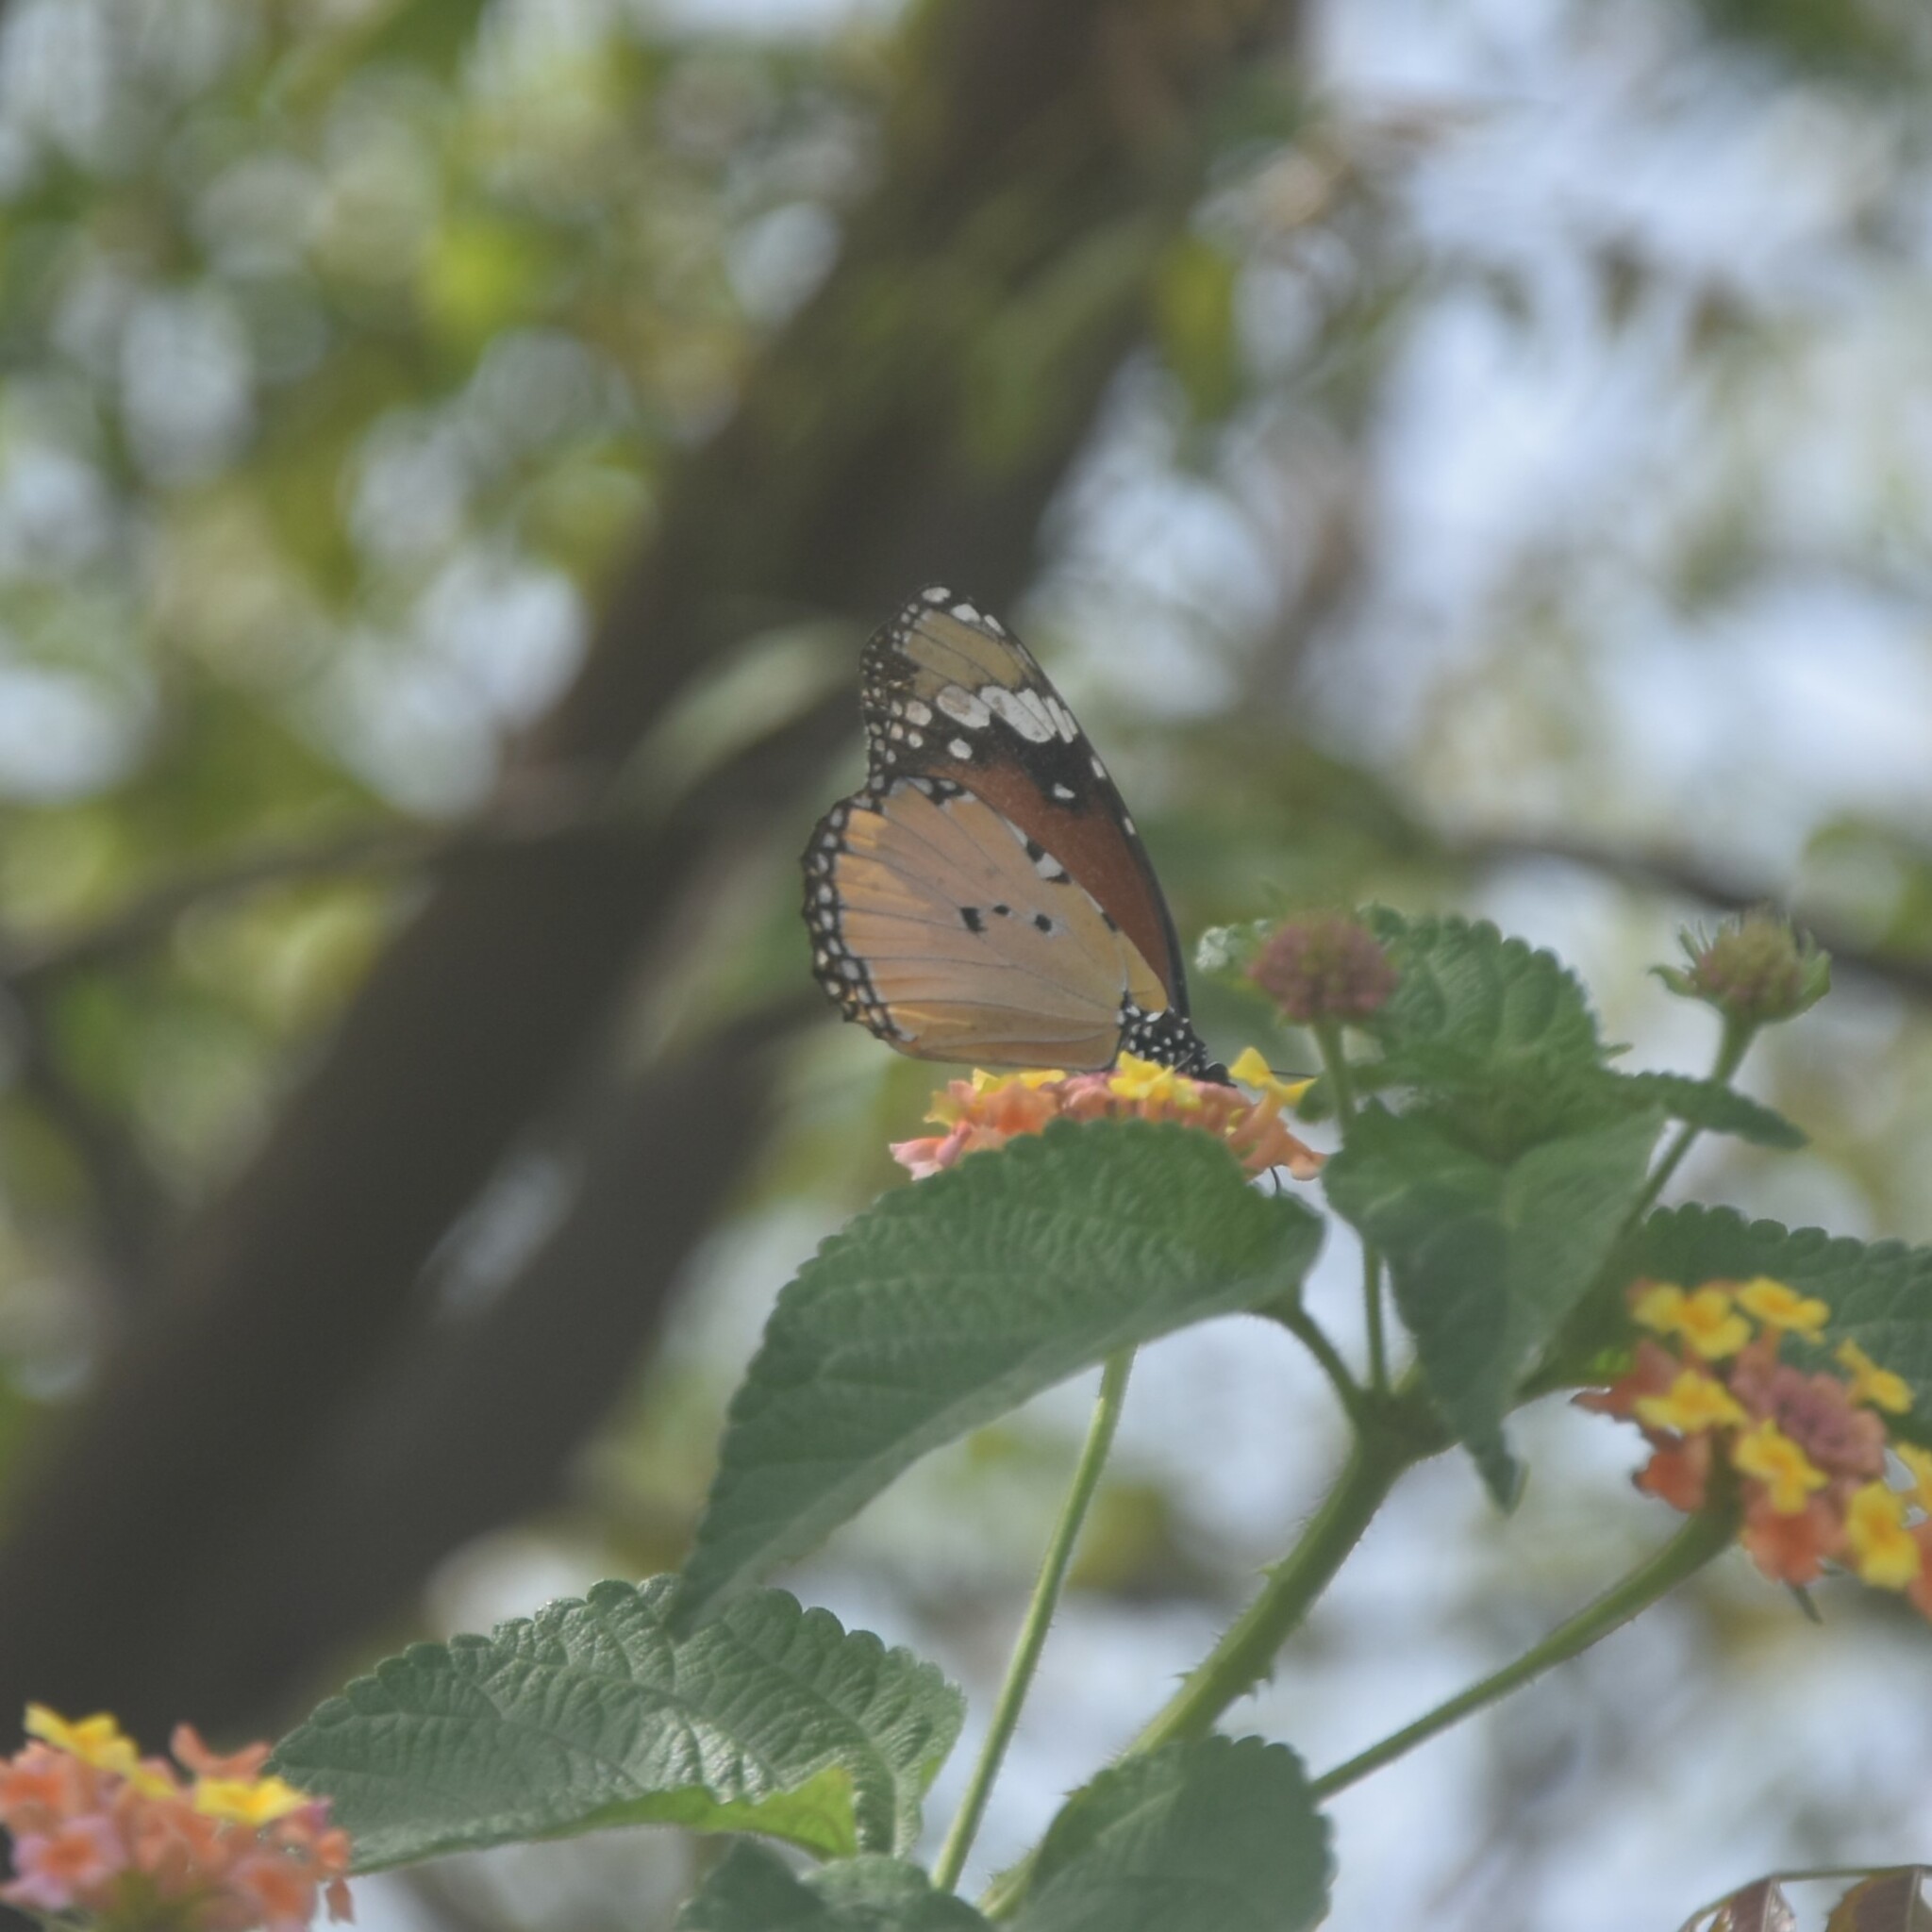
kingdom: Animalia
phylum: Arthropoda
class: Insecta
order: Lepidoptera
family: Nymphalidae
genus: Danaus
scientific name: Danaus chrysippus
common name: Plain tiger
